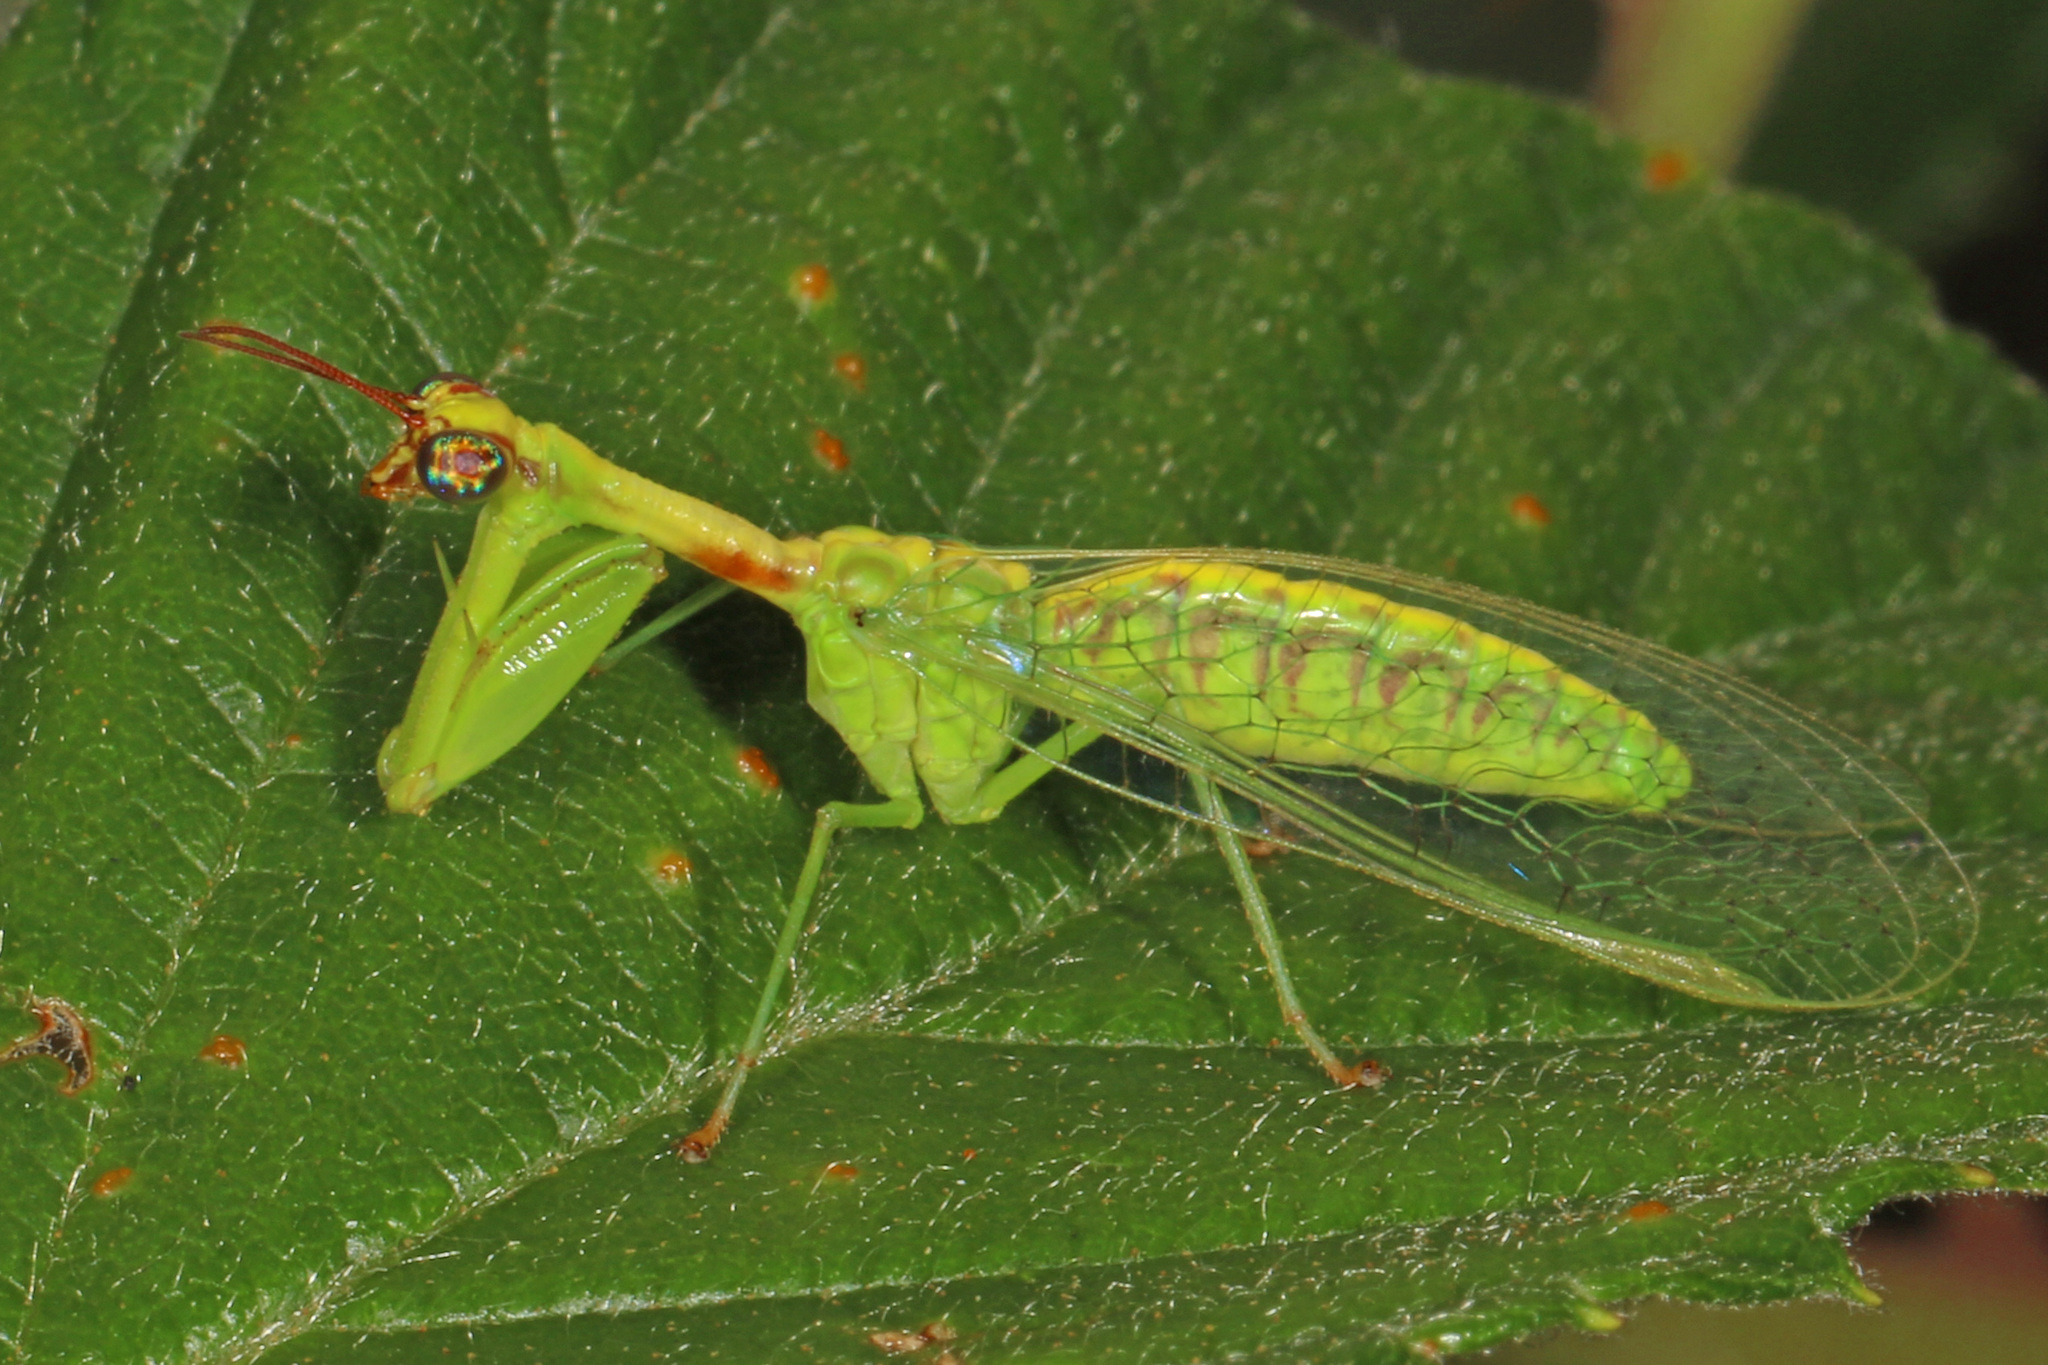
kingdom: Animalia
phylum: Arthropoda
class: Insecta
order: Neuroptera
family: Mantispidae
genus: Zeugomantispa
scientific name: Zeugomantispa minuta
